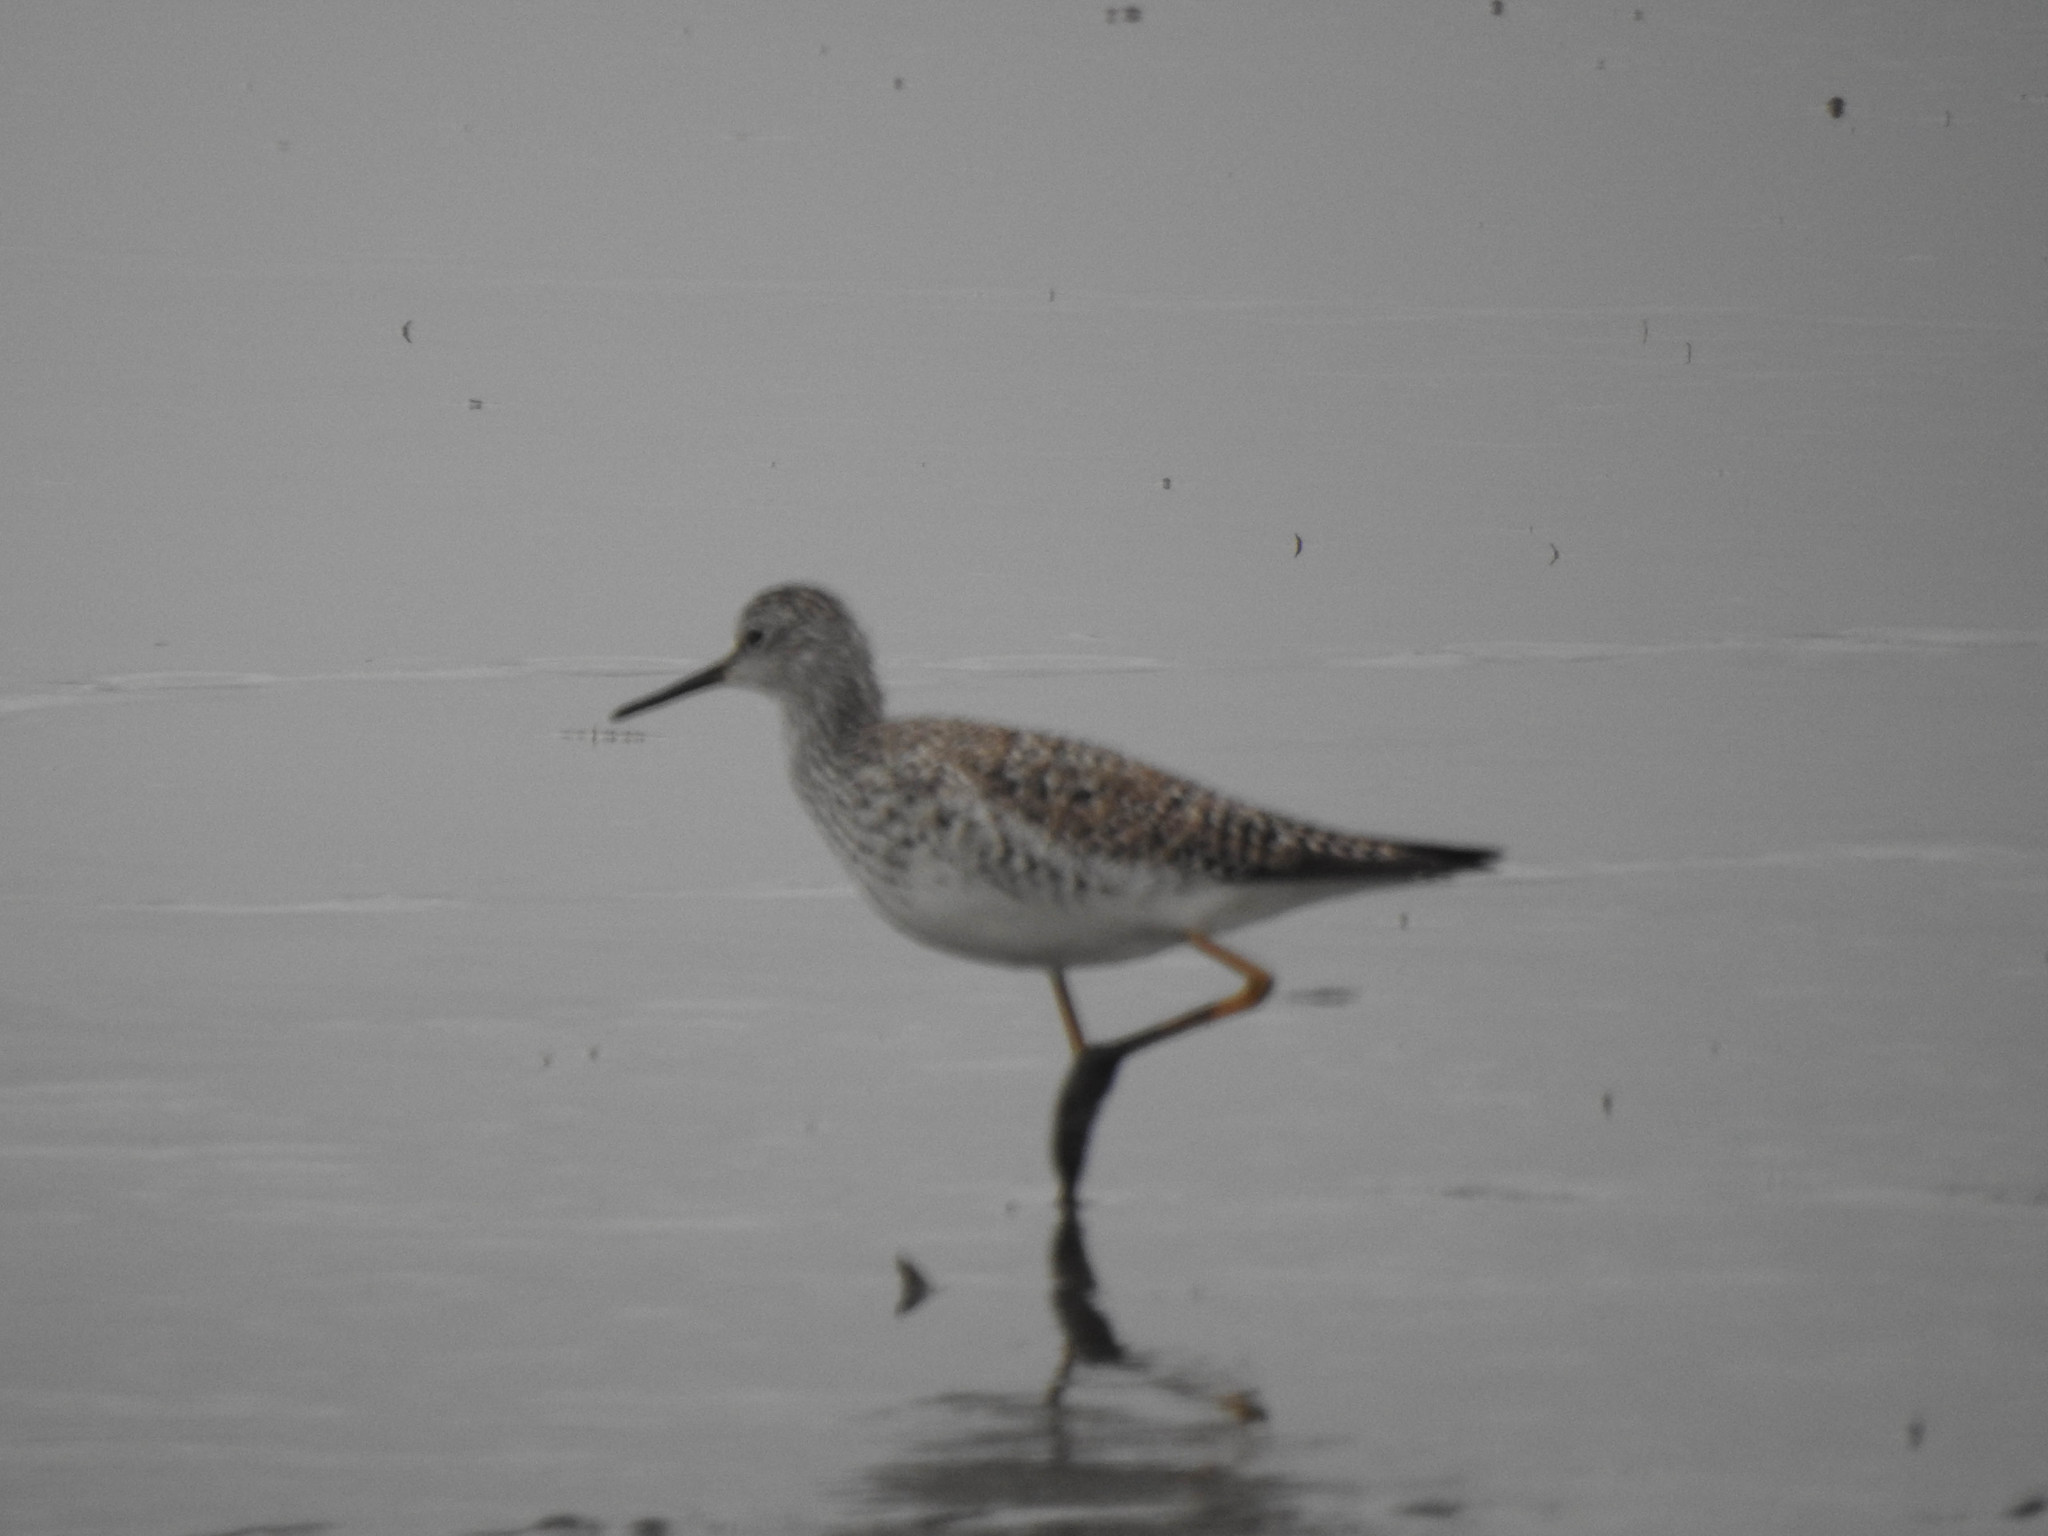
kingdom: Animalia
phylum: Chordata
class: Aves
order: Charadriiformes
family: Scolopacidae
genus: Tringa
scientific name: Tringa flavipes
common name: Lesser yellowlegs
